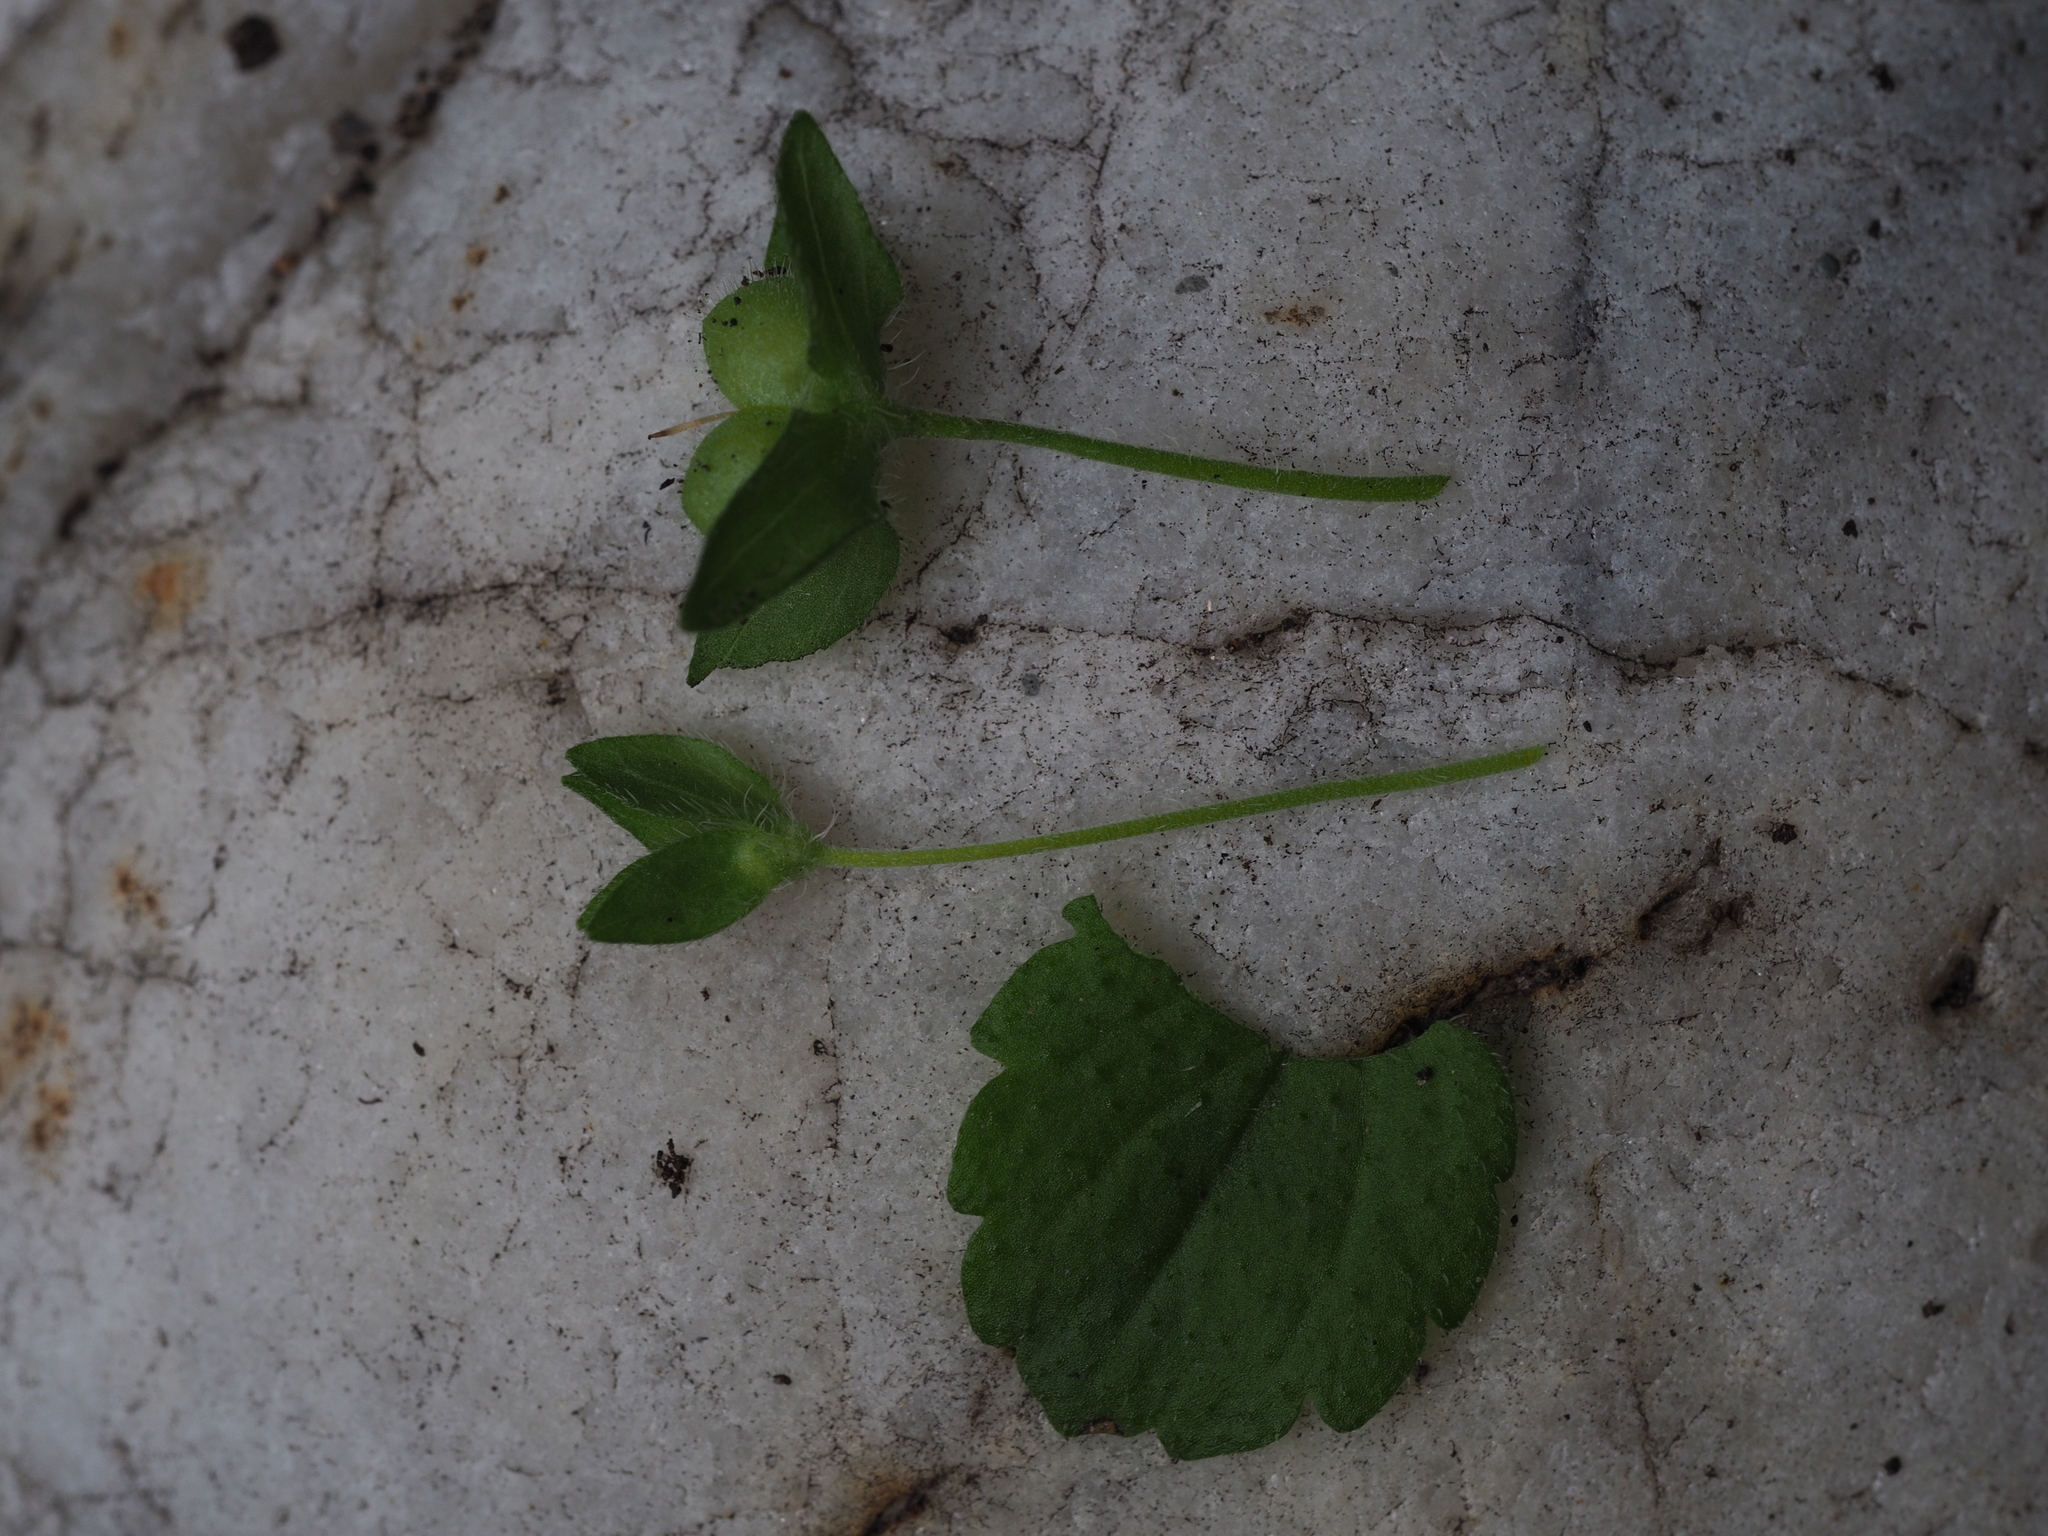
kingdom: Plantae
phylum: Tracheophyta
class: Magnoliopsida
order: Lamiales
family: Plantaginaceae
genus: Veronica
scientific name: Veronica persica
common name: Common field-speedwell
